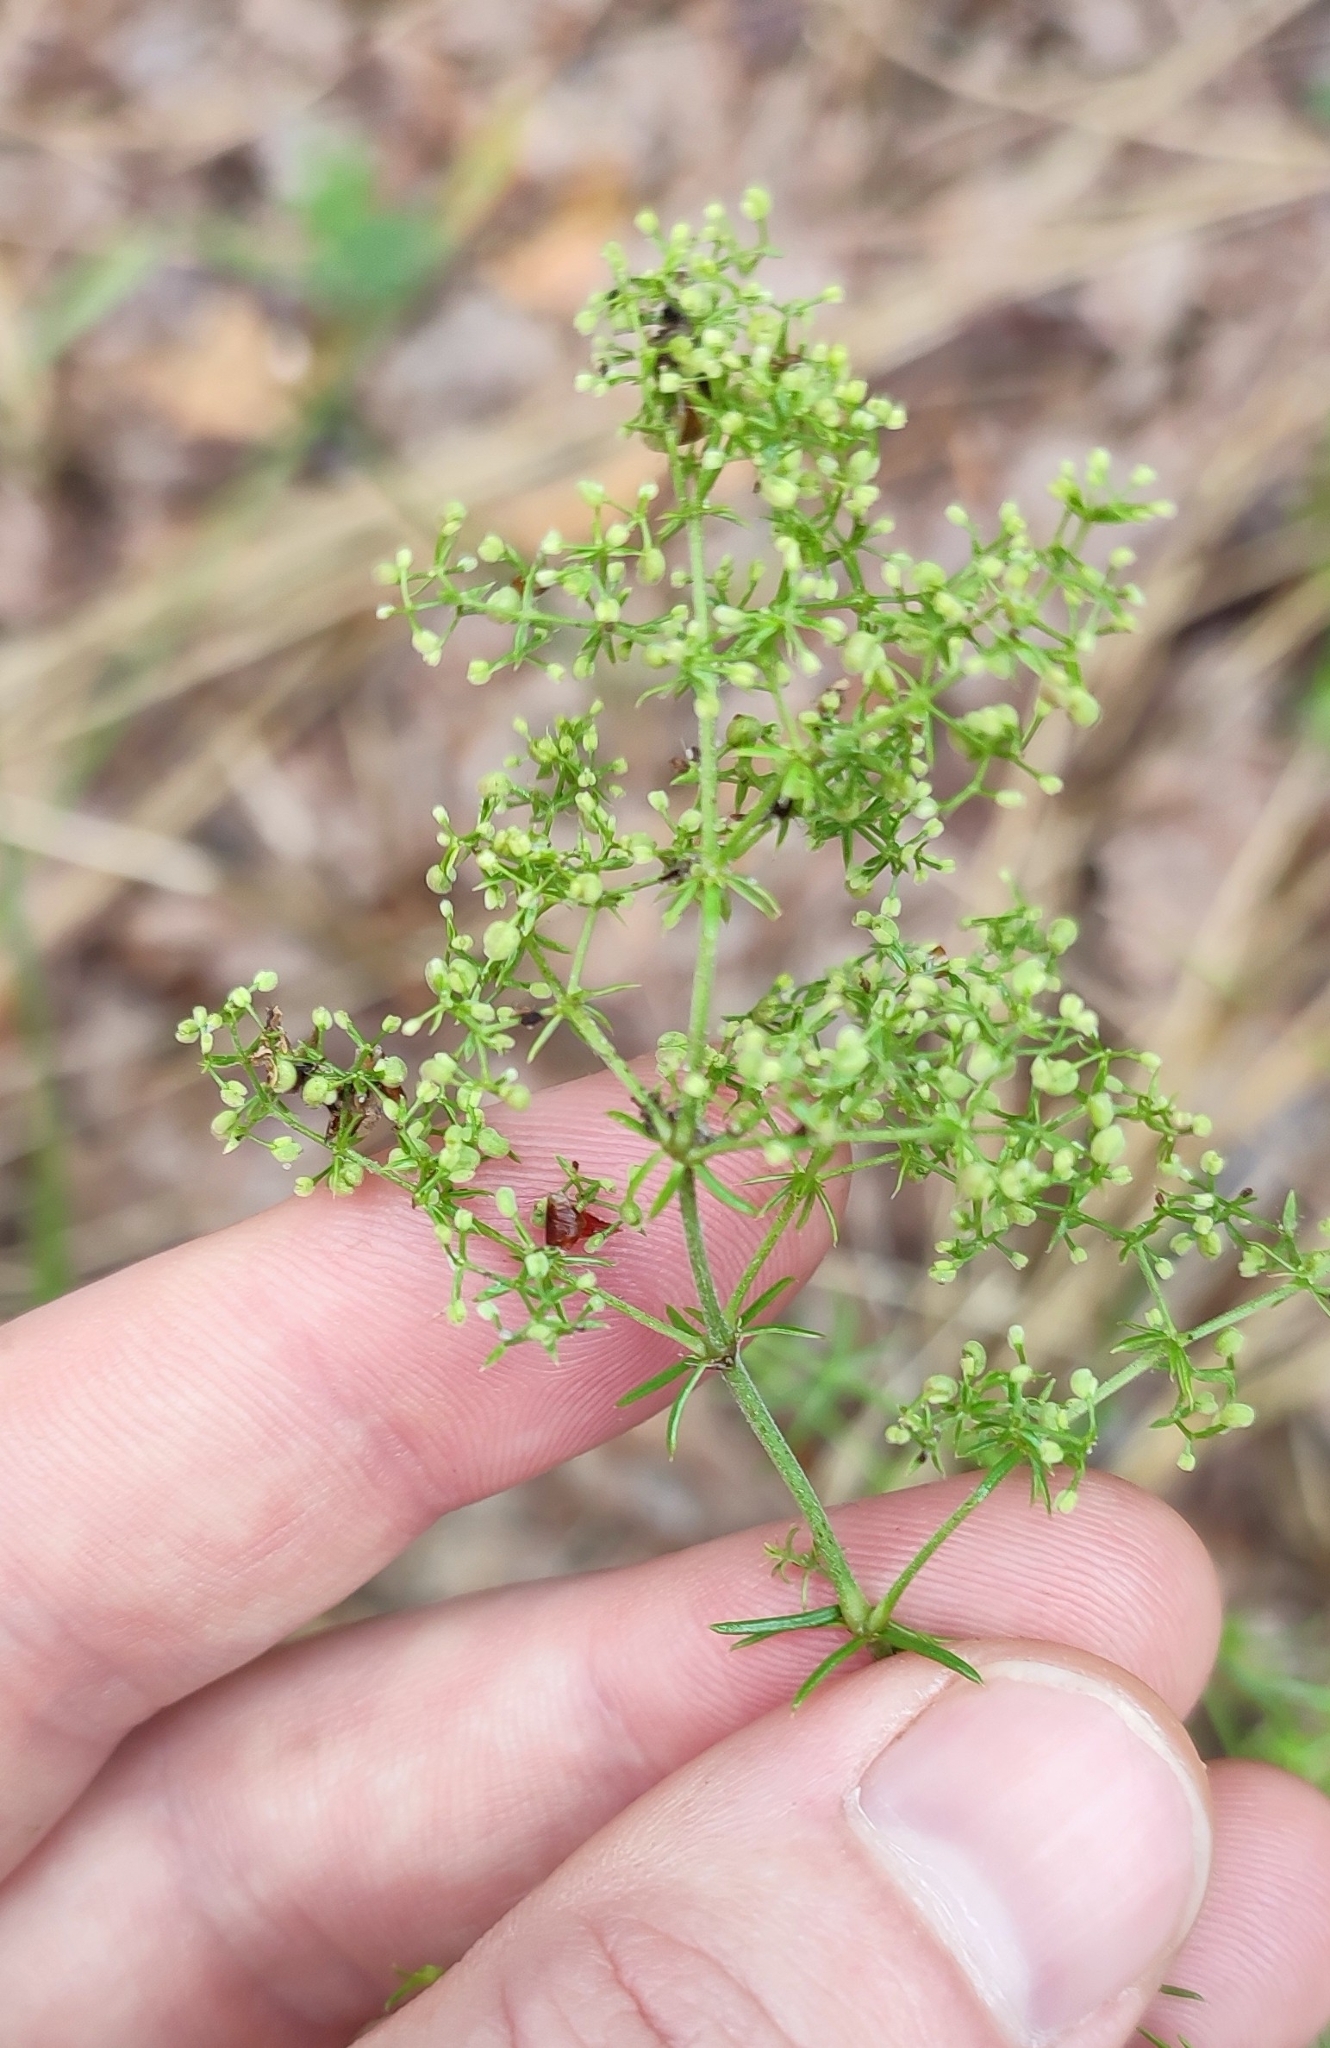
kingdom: Plantae
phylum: Tracheophyta
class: Magnoliopsida
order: Gentianales
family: Rubiaceae
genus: Galium
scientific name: Galium verum
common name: Lady's bedstraw
